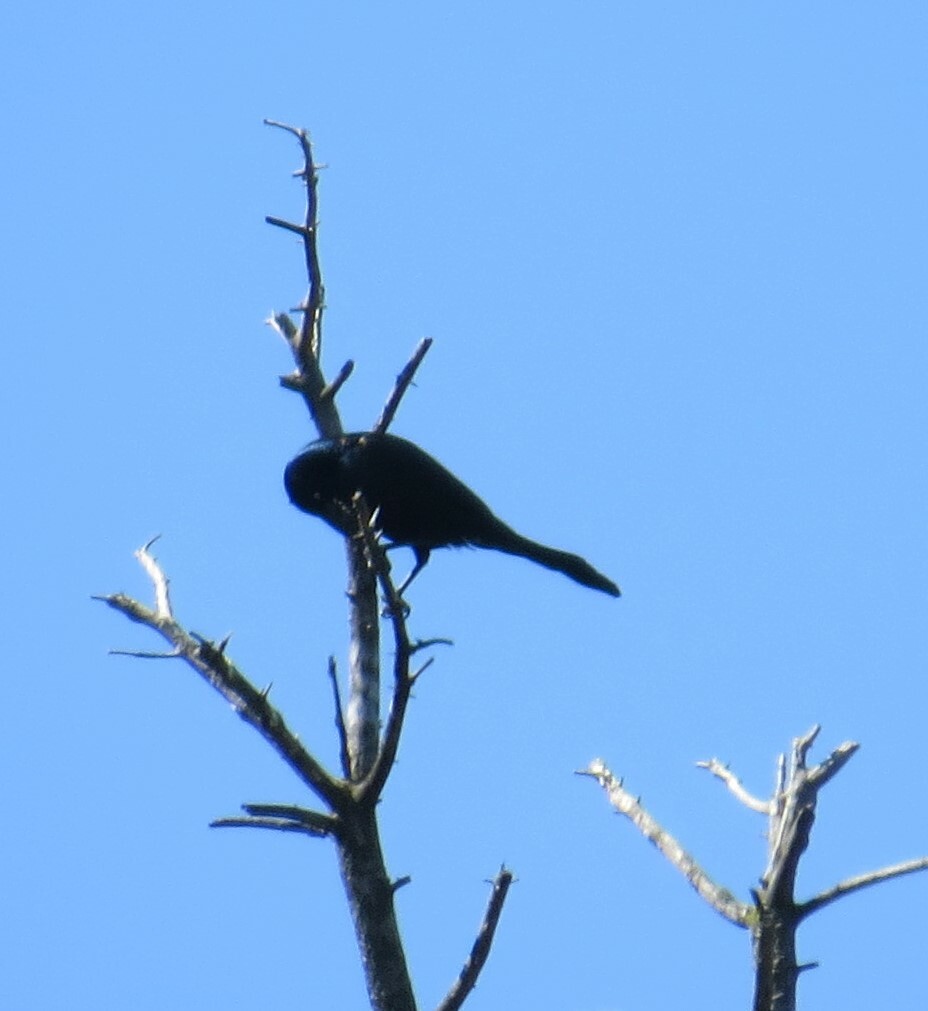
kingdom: Animalia
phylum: Chordata
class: Aves
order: Passeriformes
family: Icteridae
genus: Quiscalus
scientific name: Quiscalus quiscula
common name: Common grackle
